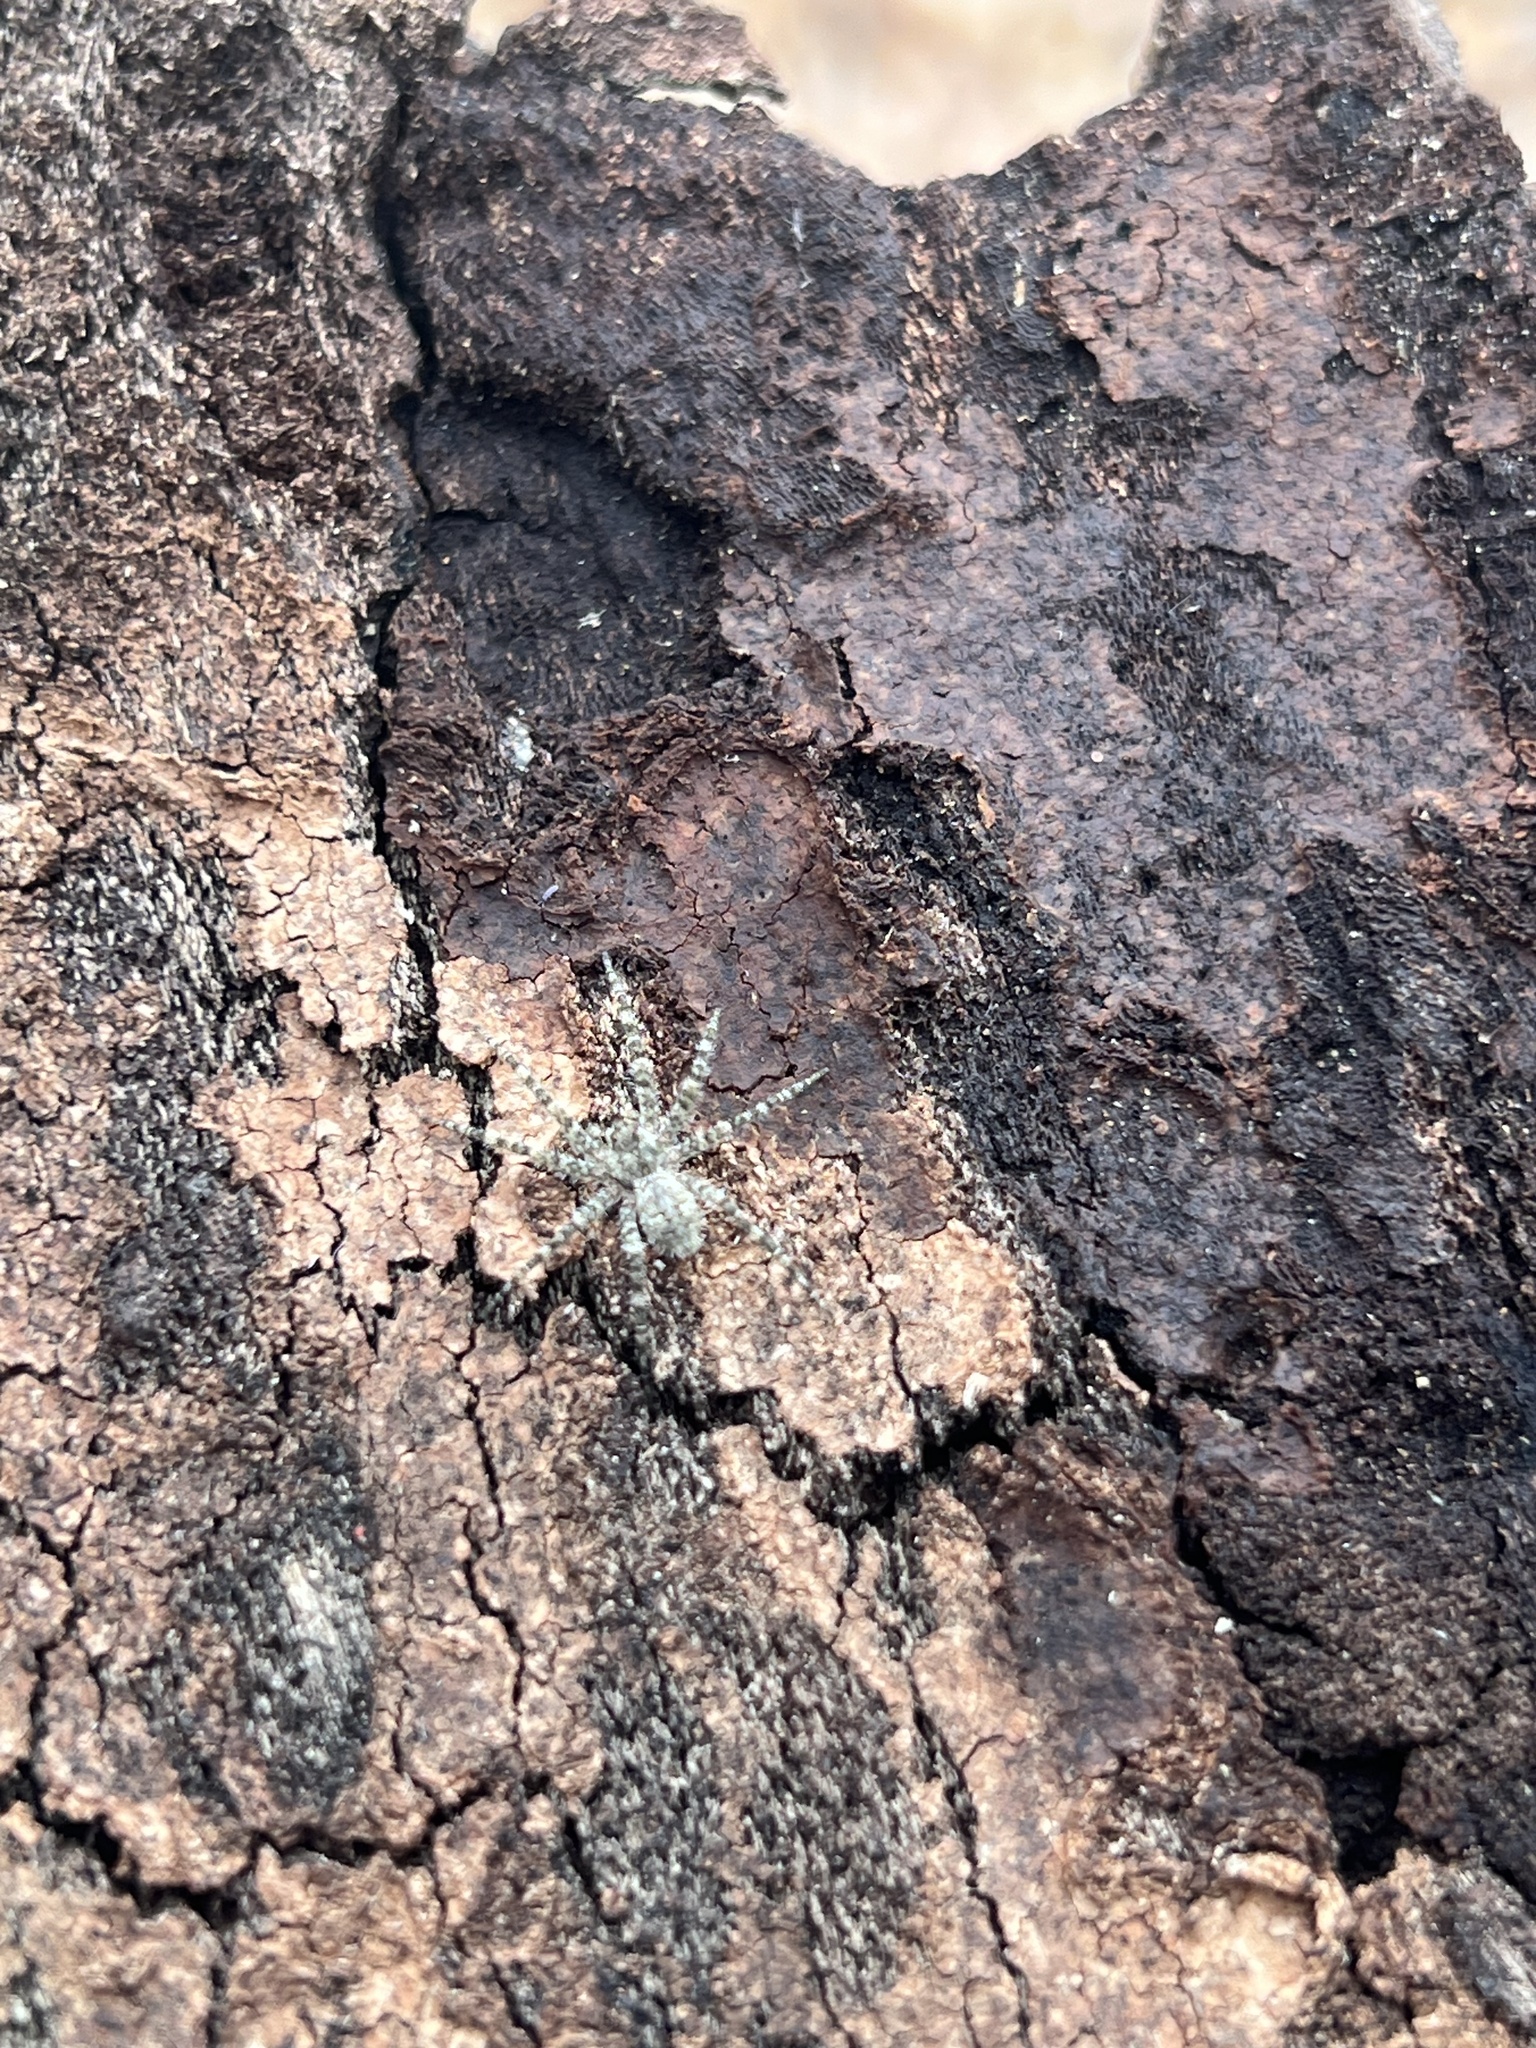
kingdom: Animalia
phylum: Arthropoda
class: Arachnida
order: Araneae
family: Pisauridae
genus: Dolomedes
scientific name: Dolomedes albineus
